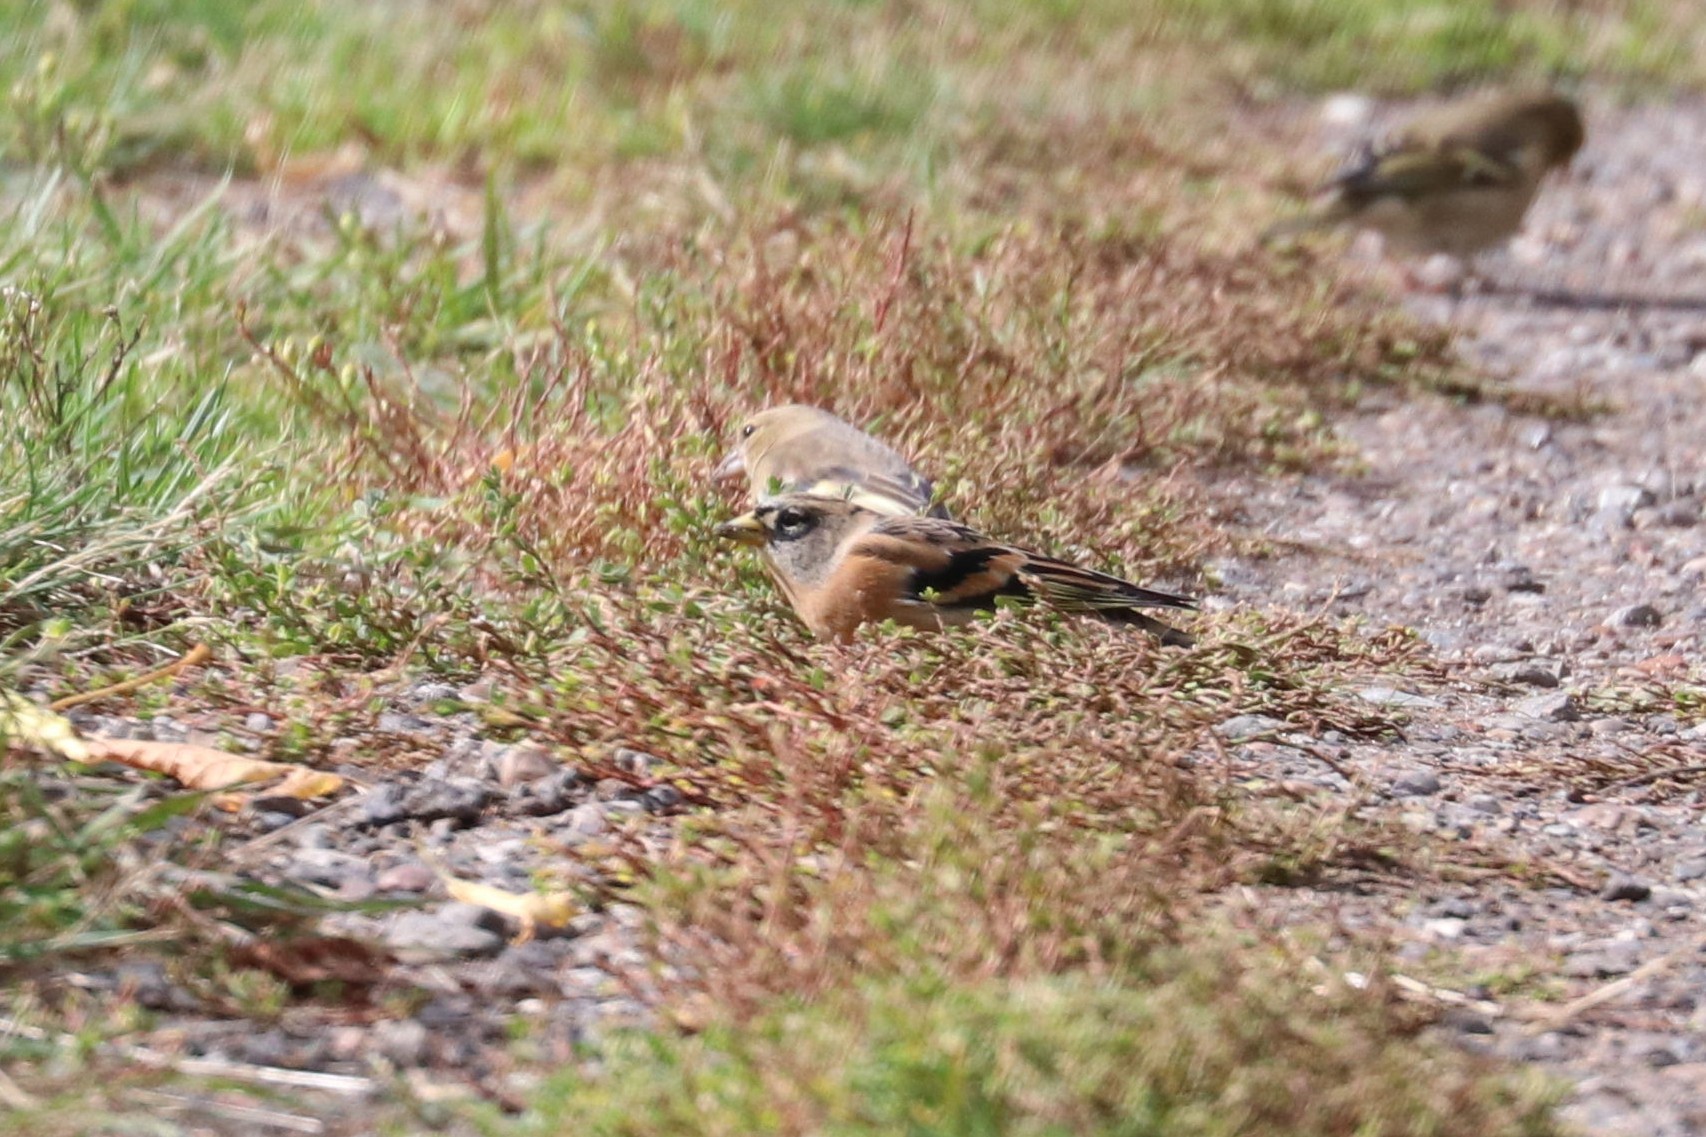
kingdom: Animalia
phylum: Chordata
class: Aves
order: Passeriformes
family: Fringillidae
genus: Fringilla
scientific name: Fringilla montifringilla
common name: Brambling
